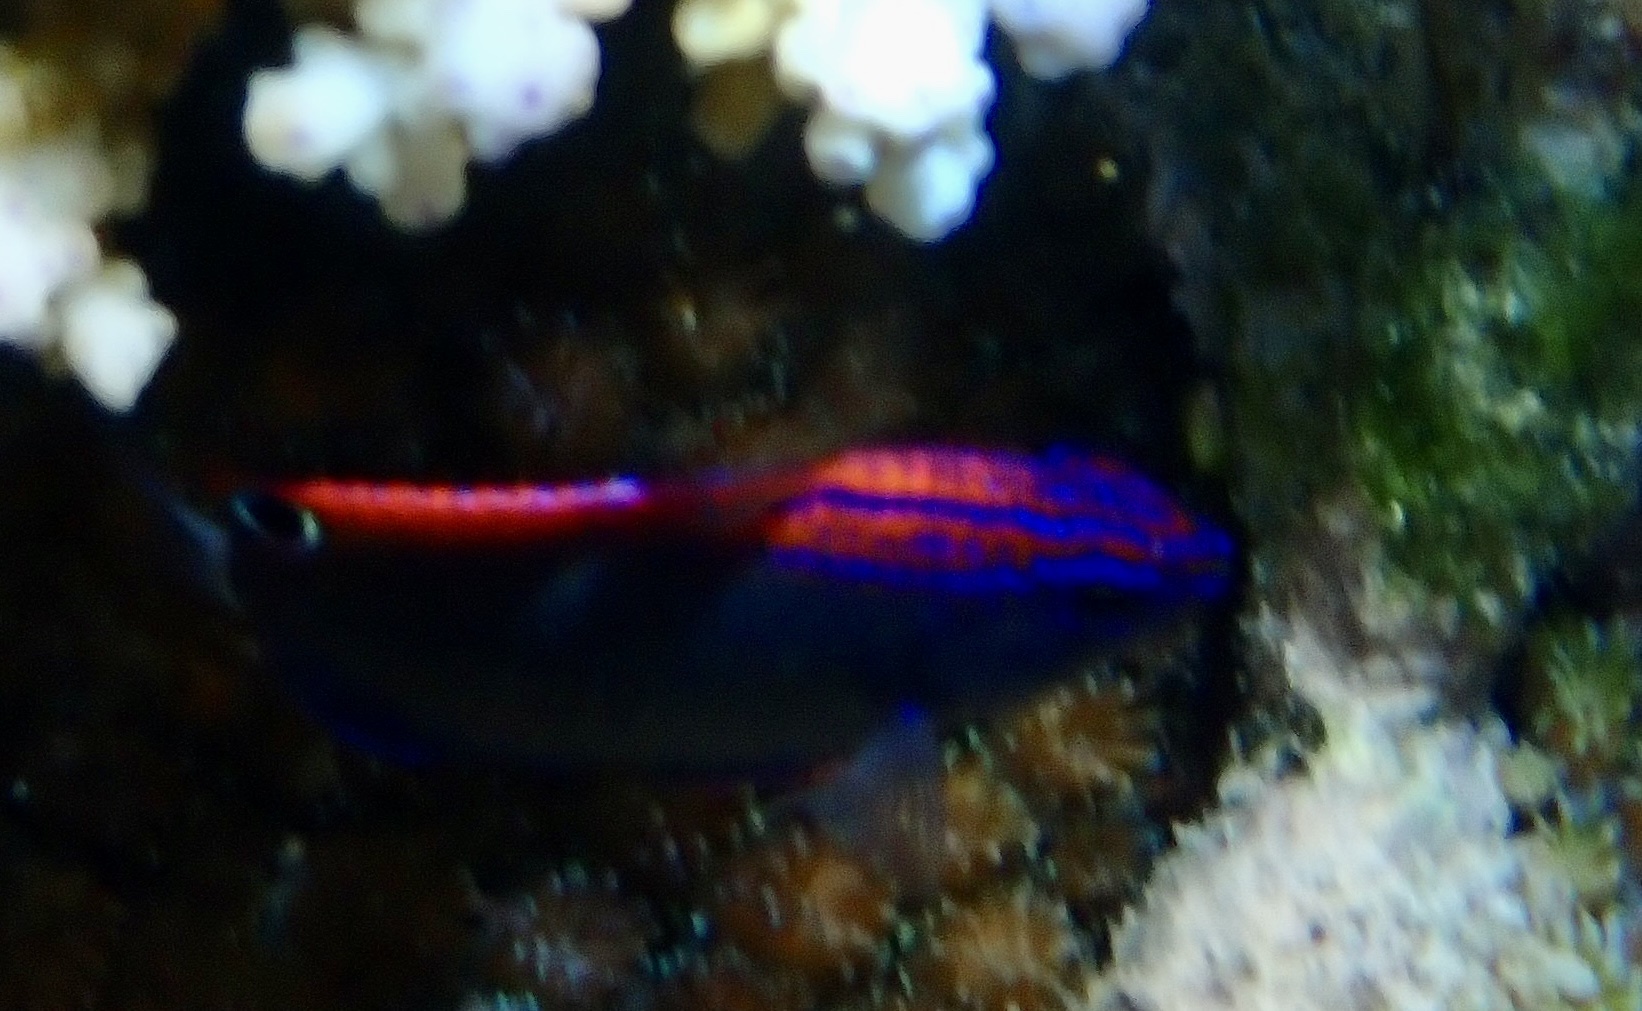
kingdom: Animalia
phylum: Chordata
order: Perciformes
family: Pomacentridae
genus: Pomacentrus
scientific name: Pomacentrus bankanensis
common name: Speckled damsel
